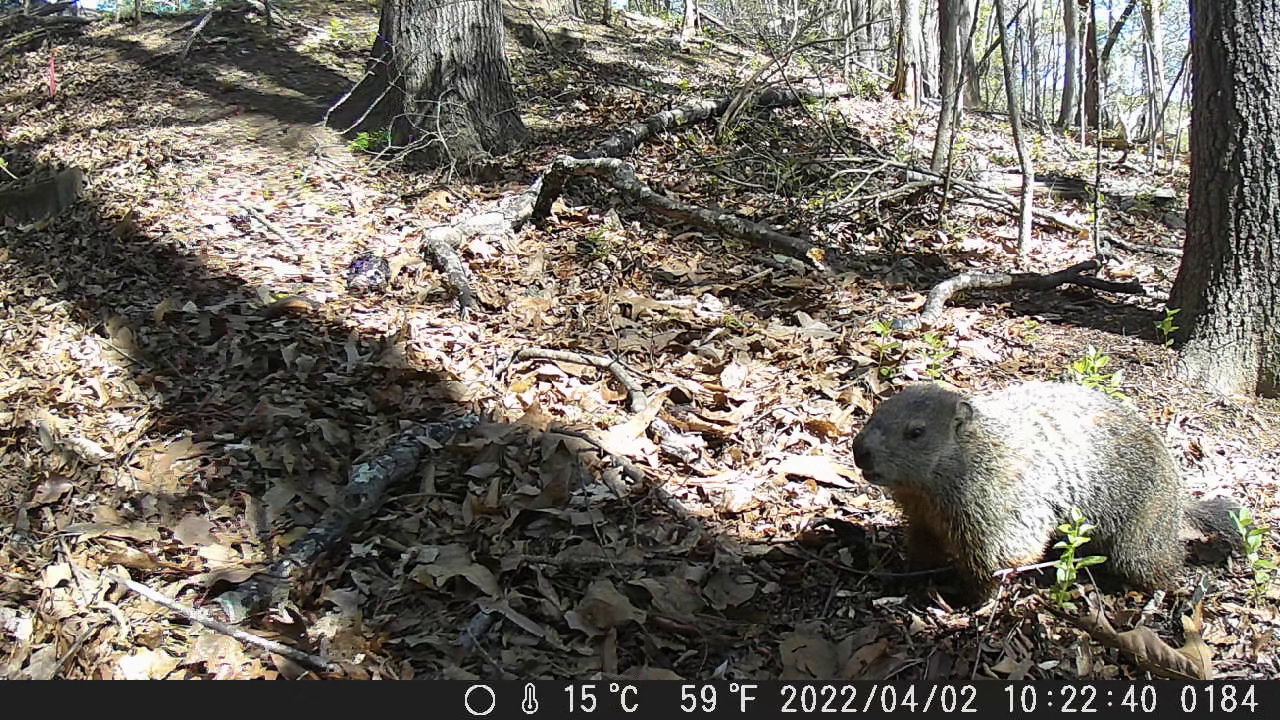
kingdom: Animalia
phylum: Chordata
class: Mammalia
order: Rodentia
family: Sciuridae
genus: Marmota
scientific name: Marmota monax
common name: Groundhog
